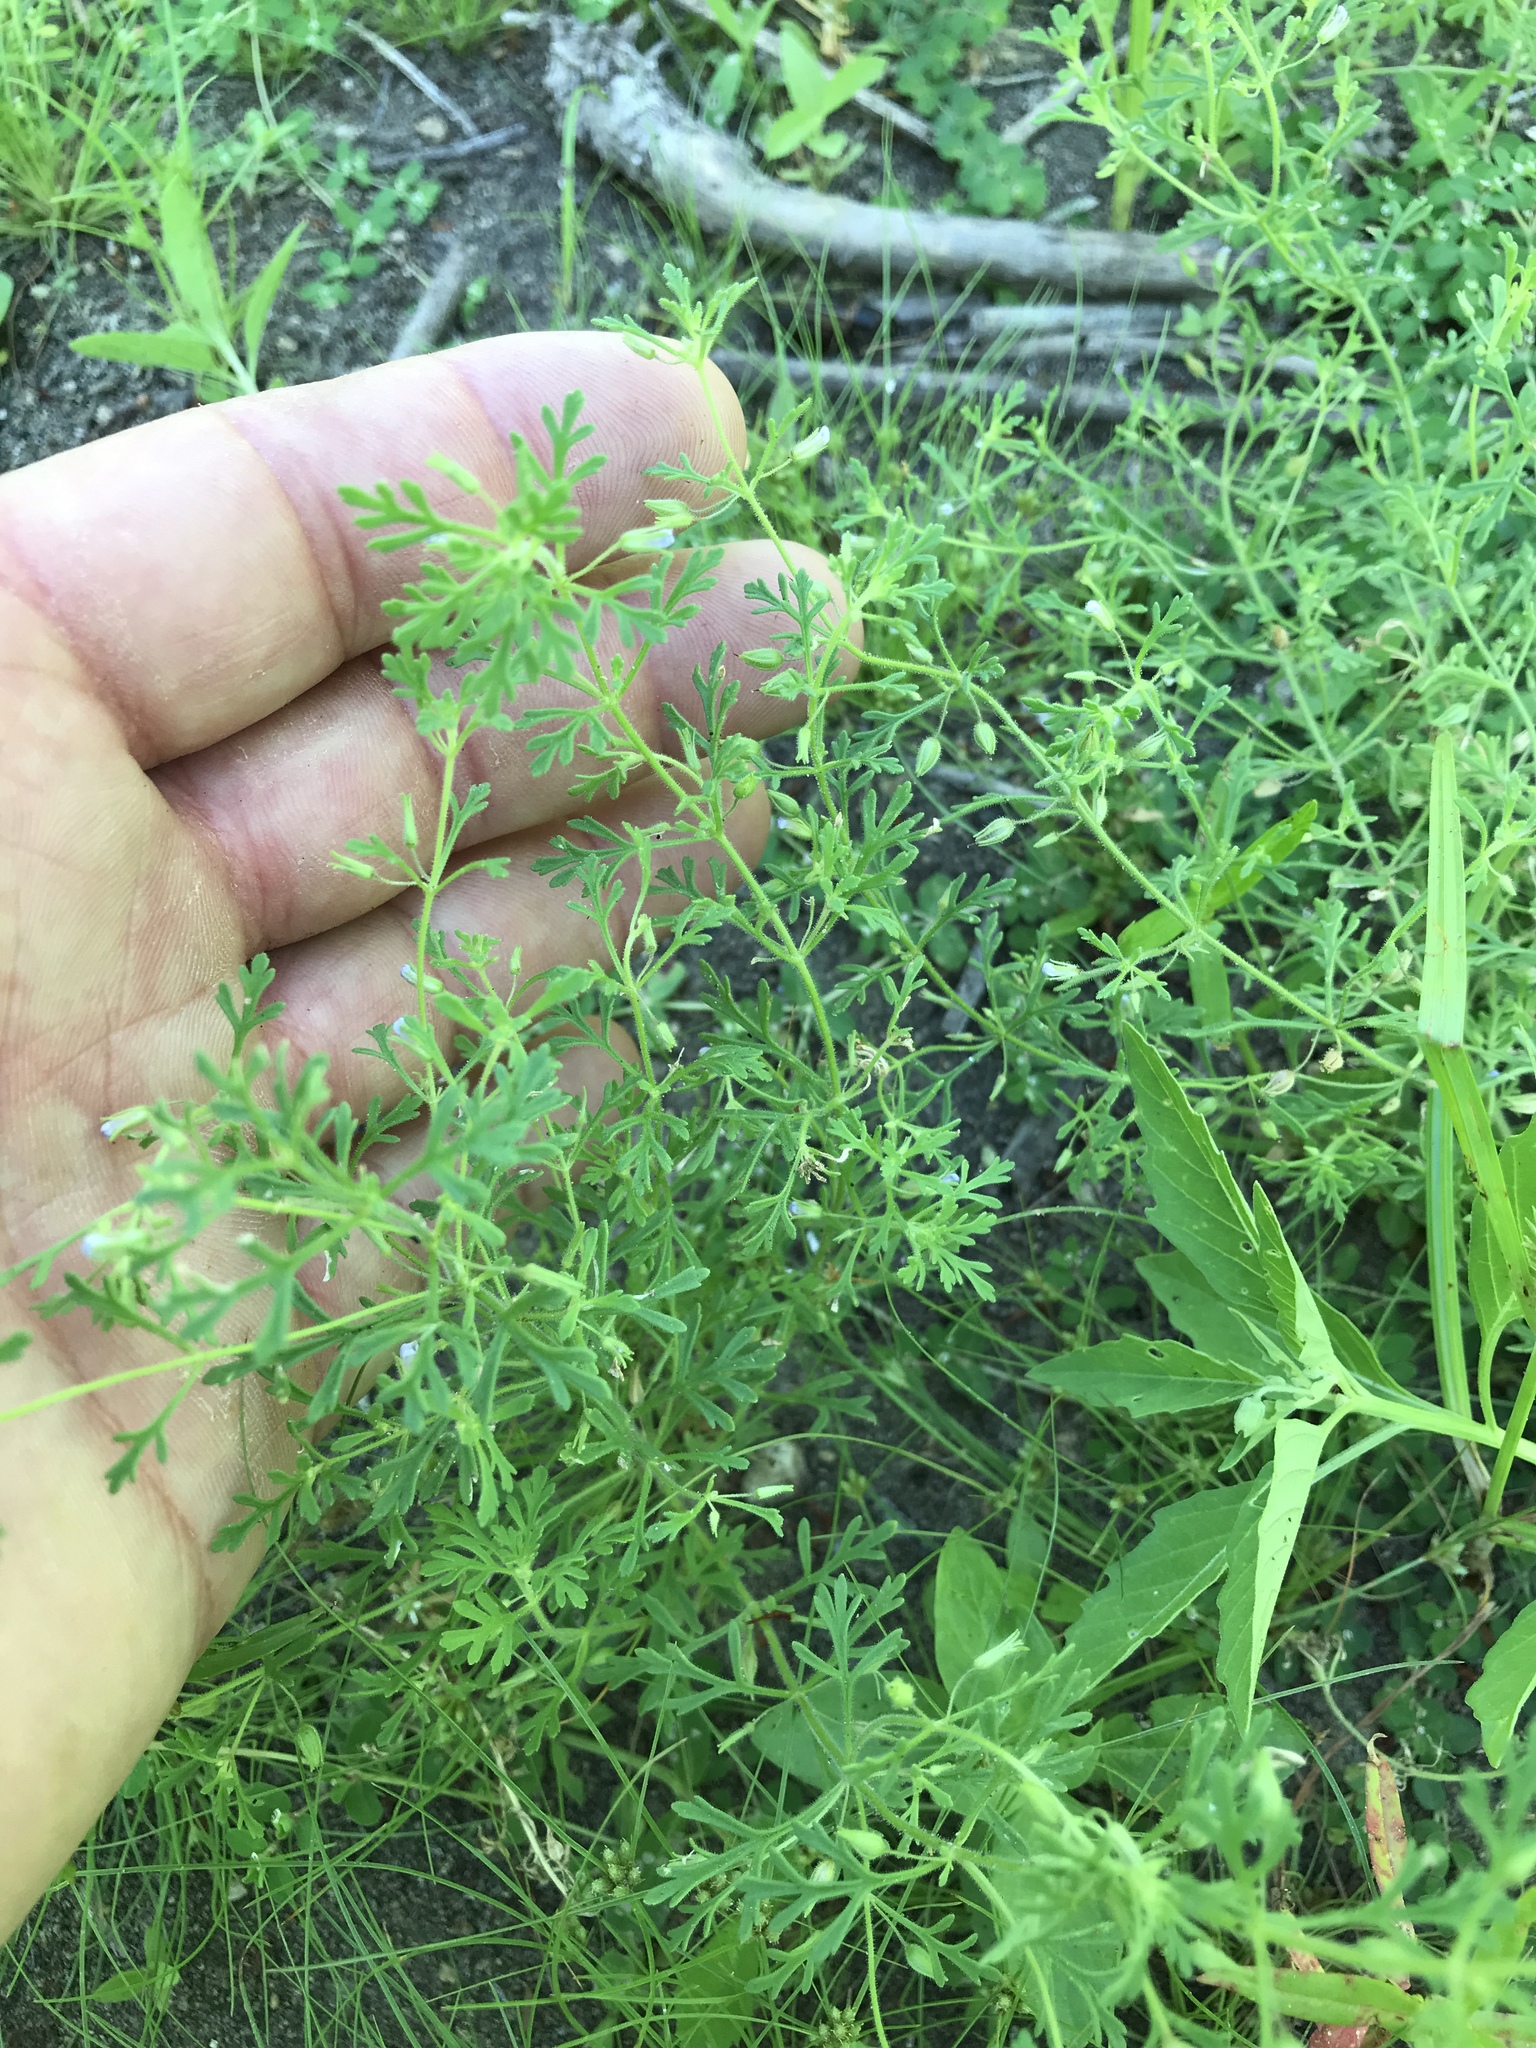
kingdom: Plantae
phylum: Tracheophyta
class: Magnoliopsida
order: Lamiales
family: Plantaginaceae
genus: Leucospora
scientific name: Leucospora multifida
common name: Narrow-leaf paleseed
